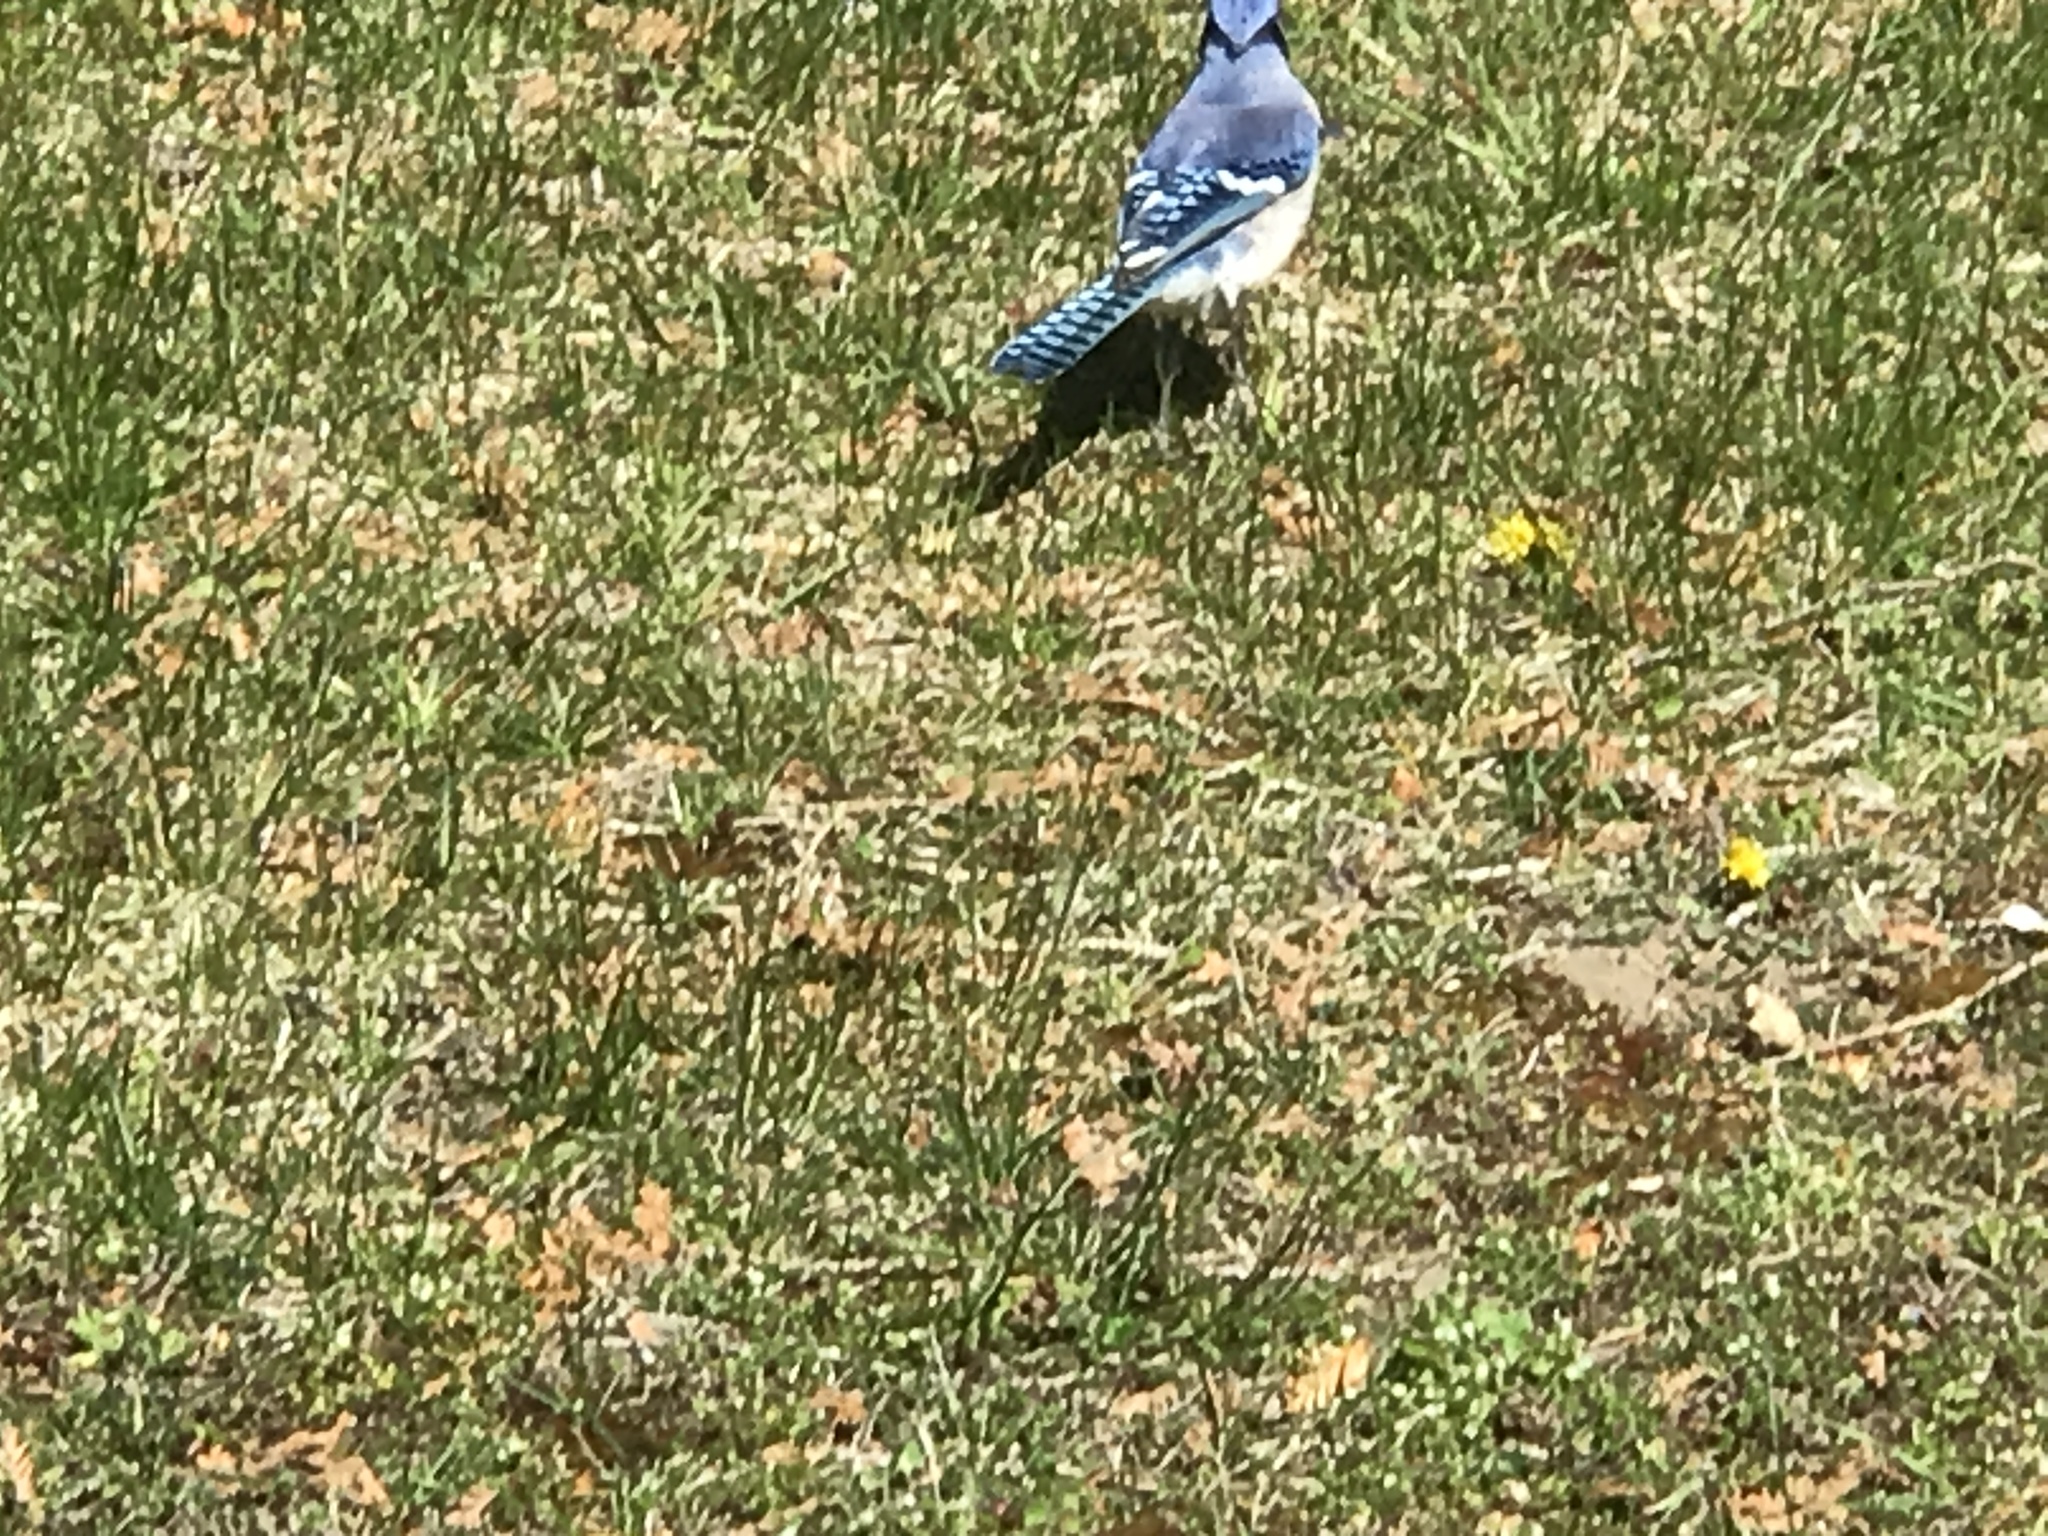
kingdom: Animalia
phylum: Chordata
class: Aves
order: Passeriformes
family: Corvidae
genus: Cyanocitta
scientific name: Cyanocitta cristata
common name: Blue jay
